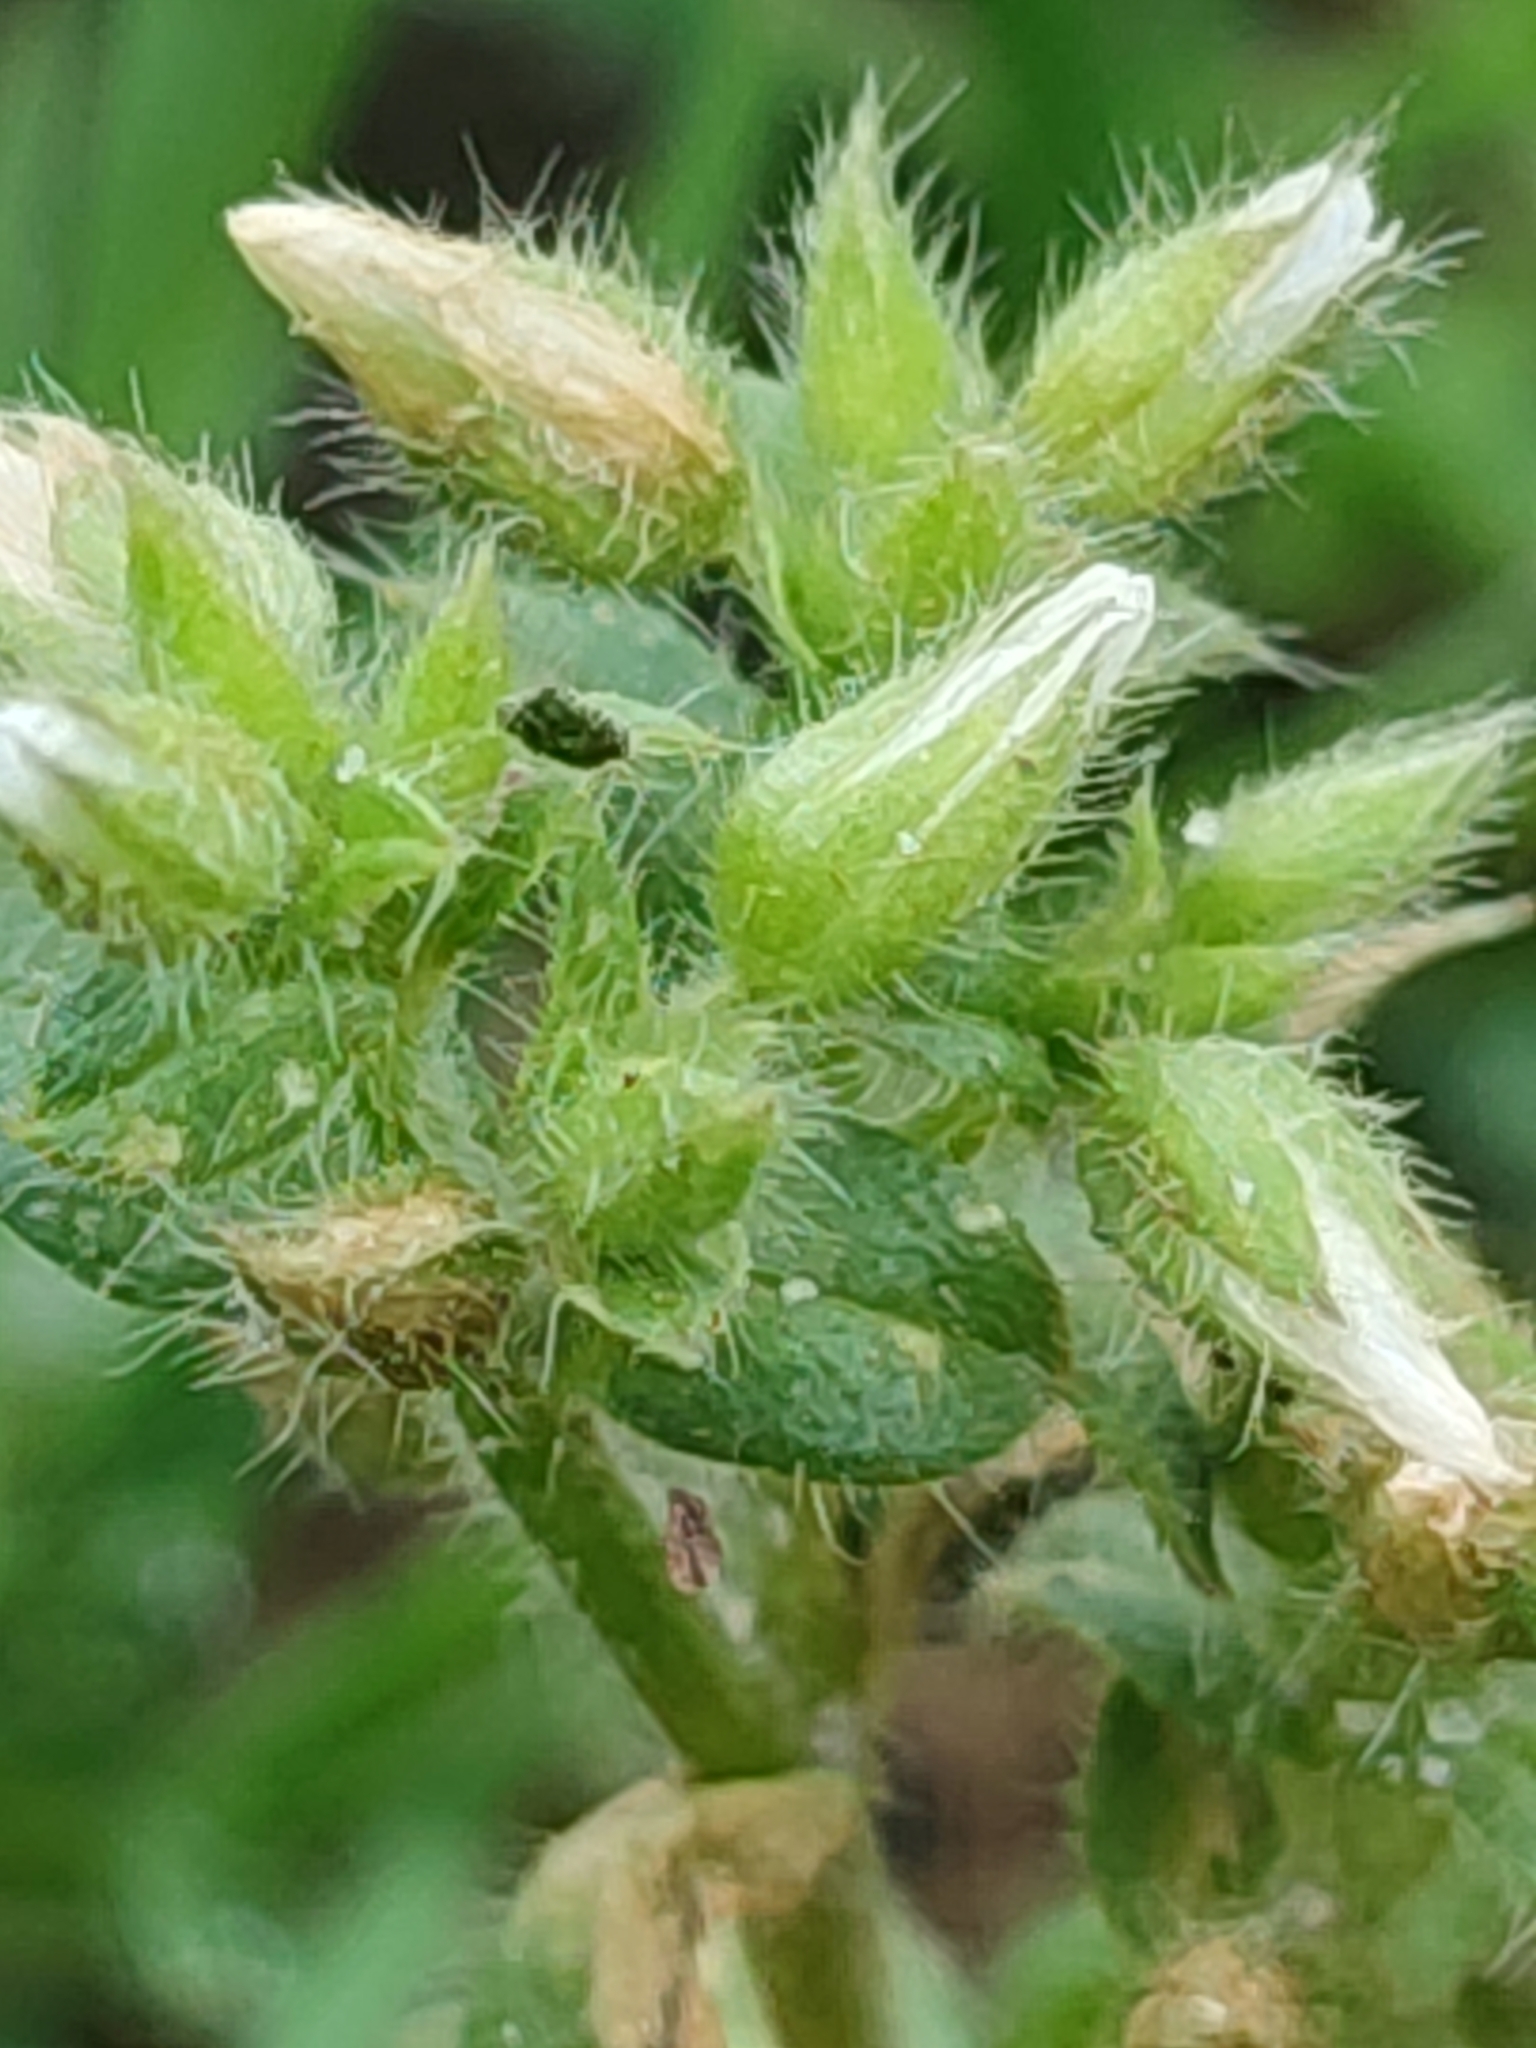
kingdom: Plantae
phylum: Tracheophyta
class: Magnoliopsida
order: Caryophyllales
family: Caryophyllaceae
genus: Cerastium
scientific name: Cerastium glomeratum
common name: Sticky chickweed
